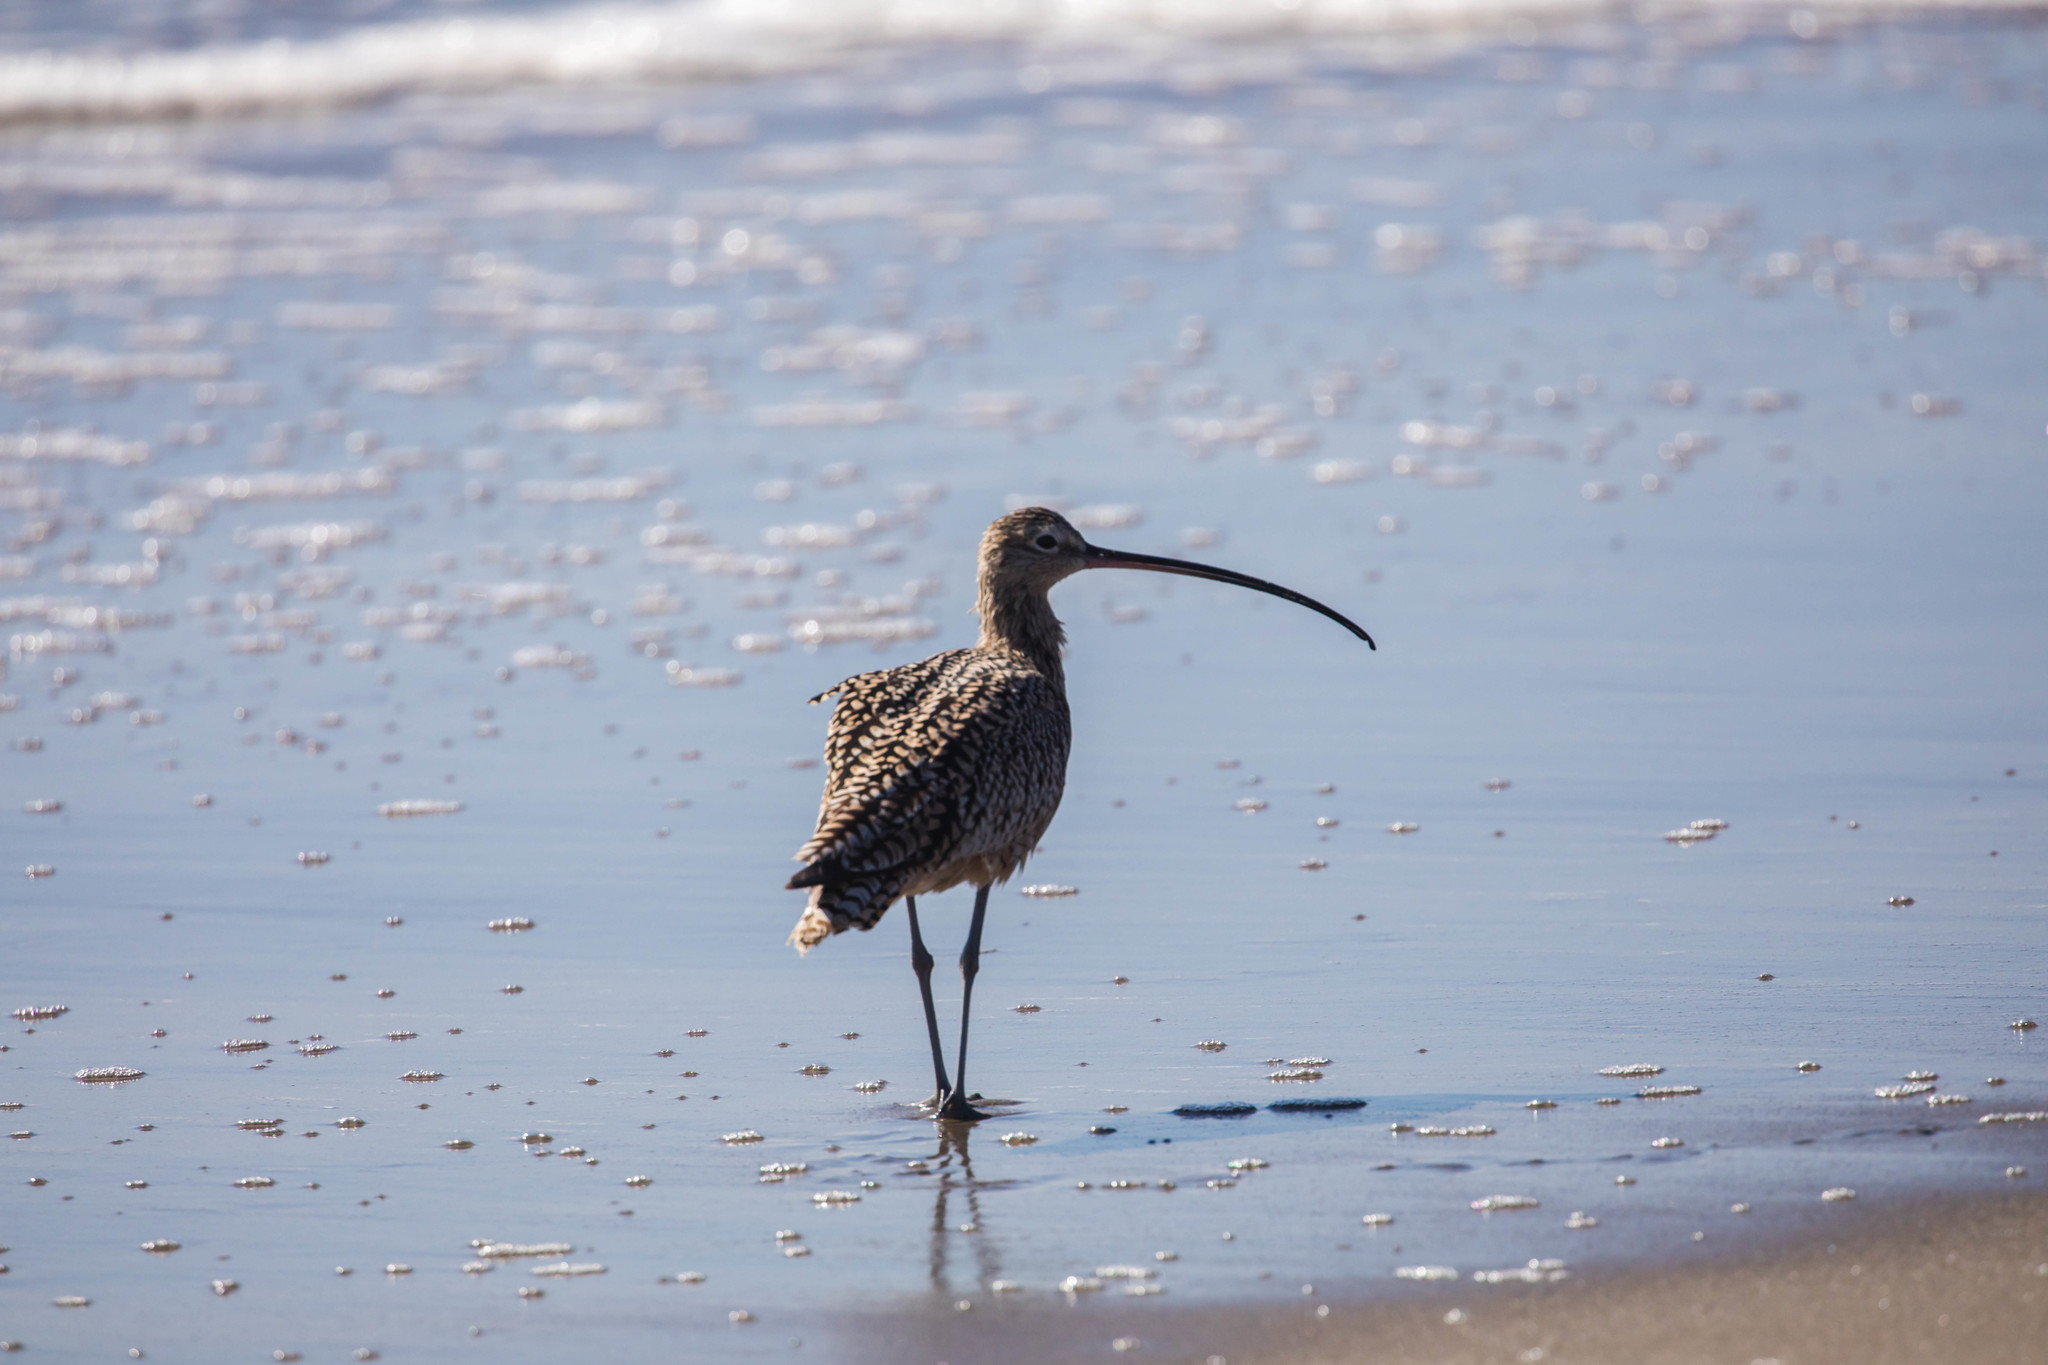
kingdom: Animalia
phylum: Chordata
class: Aves
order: Charadriiformes
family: Scolopacidae
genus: Numenius
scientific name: Numenius americanus
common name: Long-billed curlew
